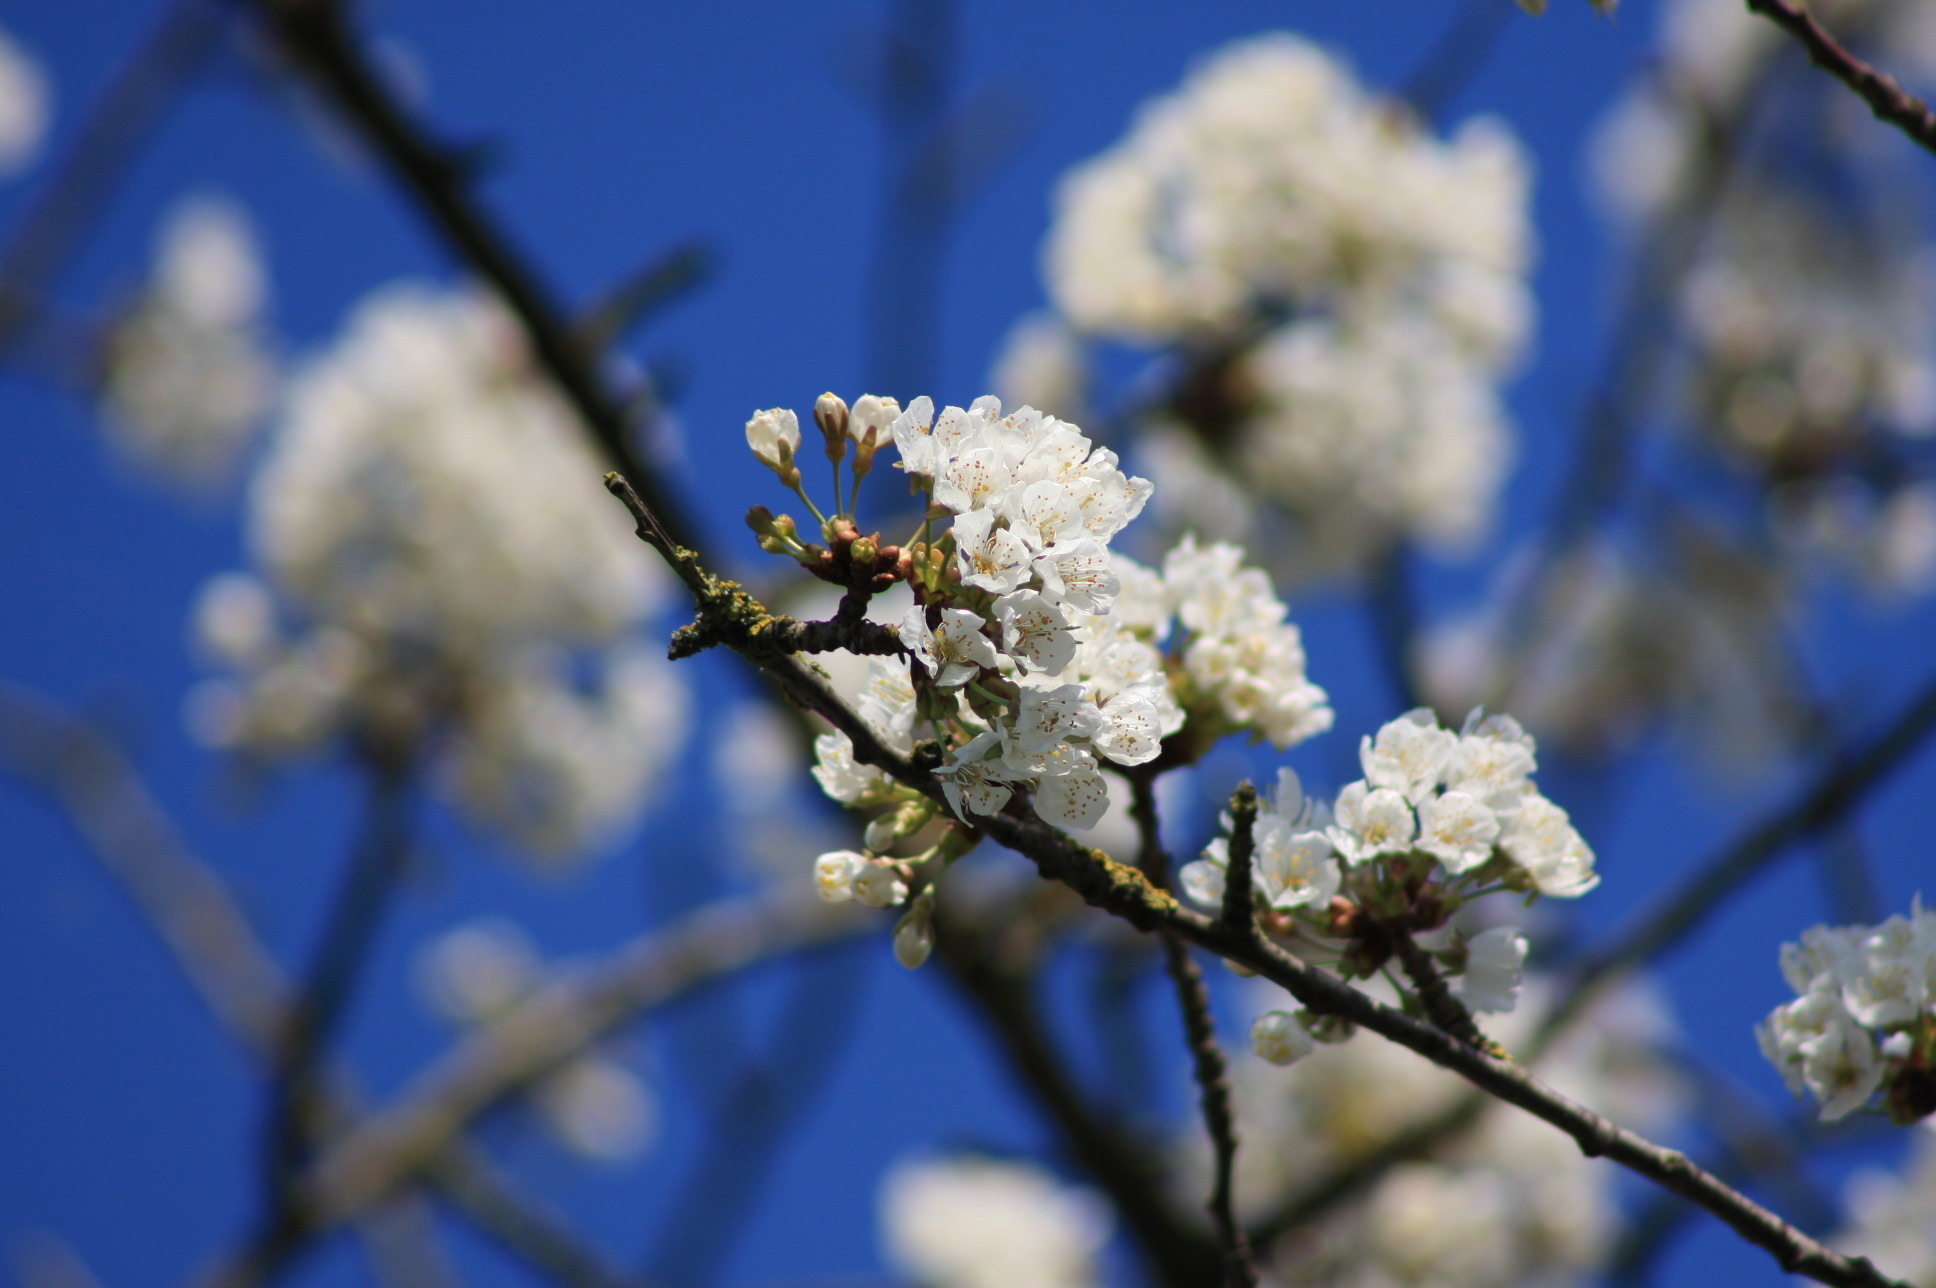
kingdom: Plantae
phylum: Tracheophyta
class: Magnoliopsida
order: Rosales
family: Rosaceae
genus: Prunus
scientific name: Prunus avium
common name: Sweet cherry
